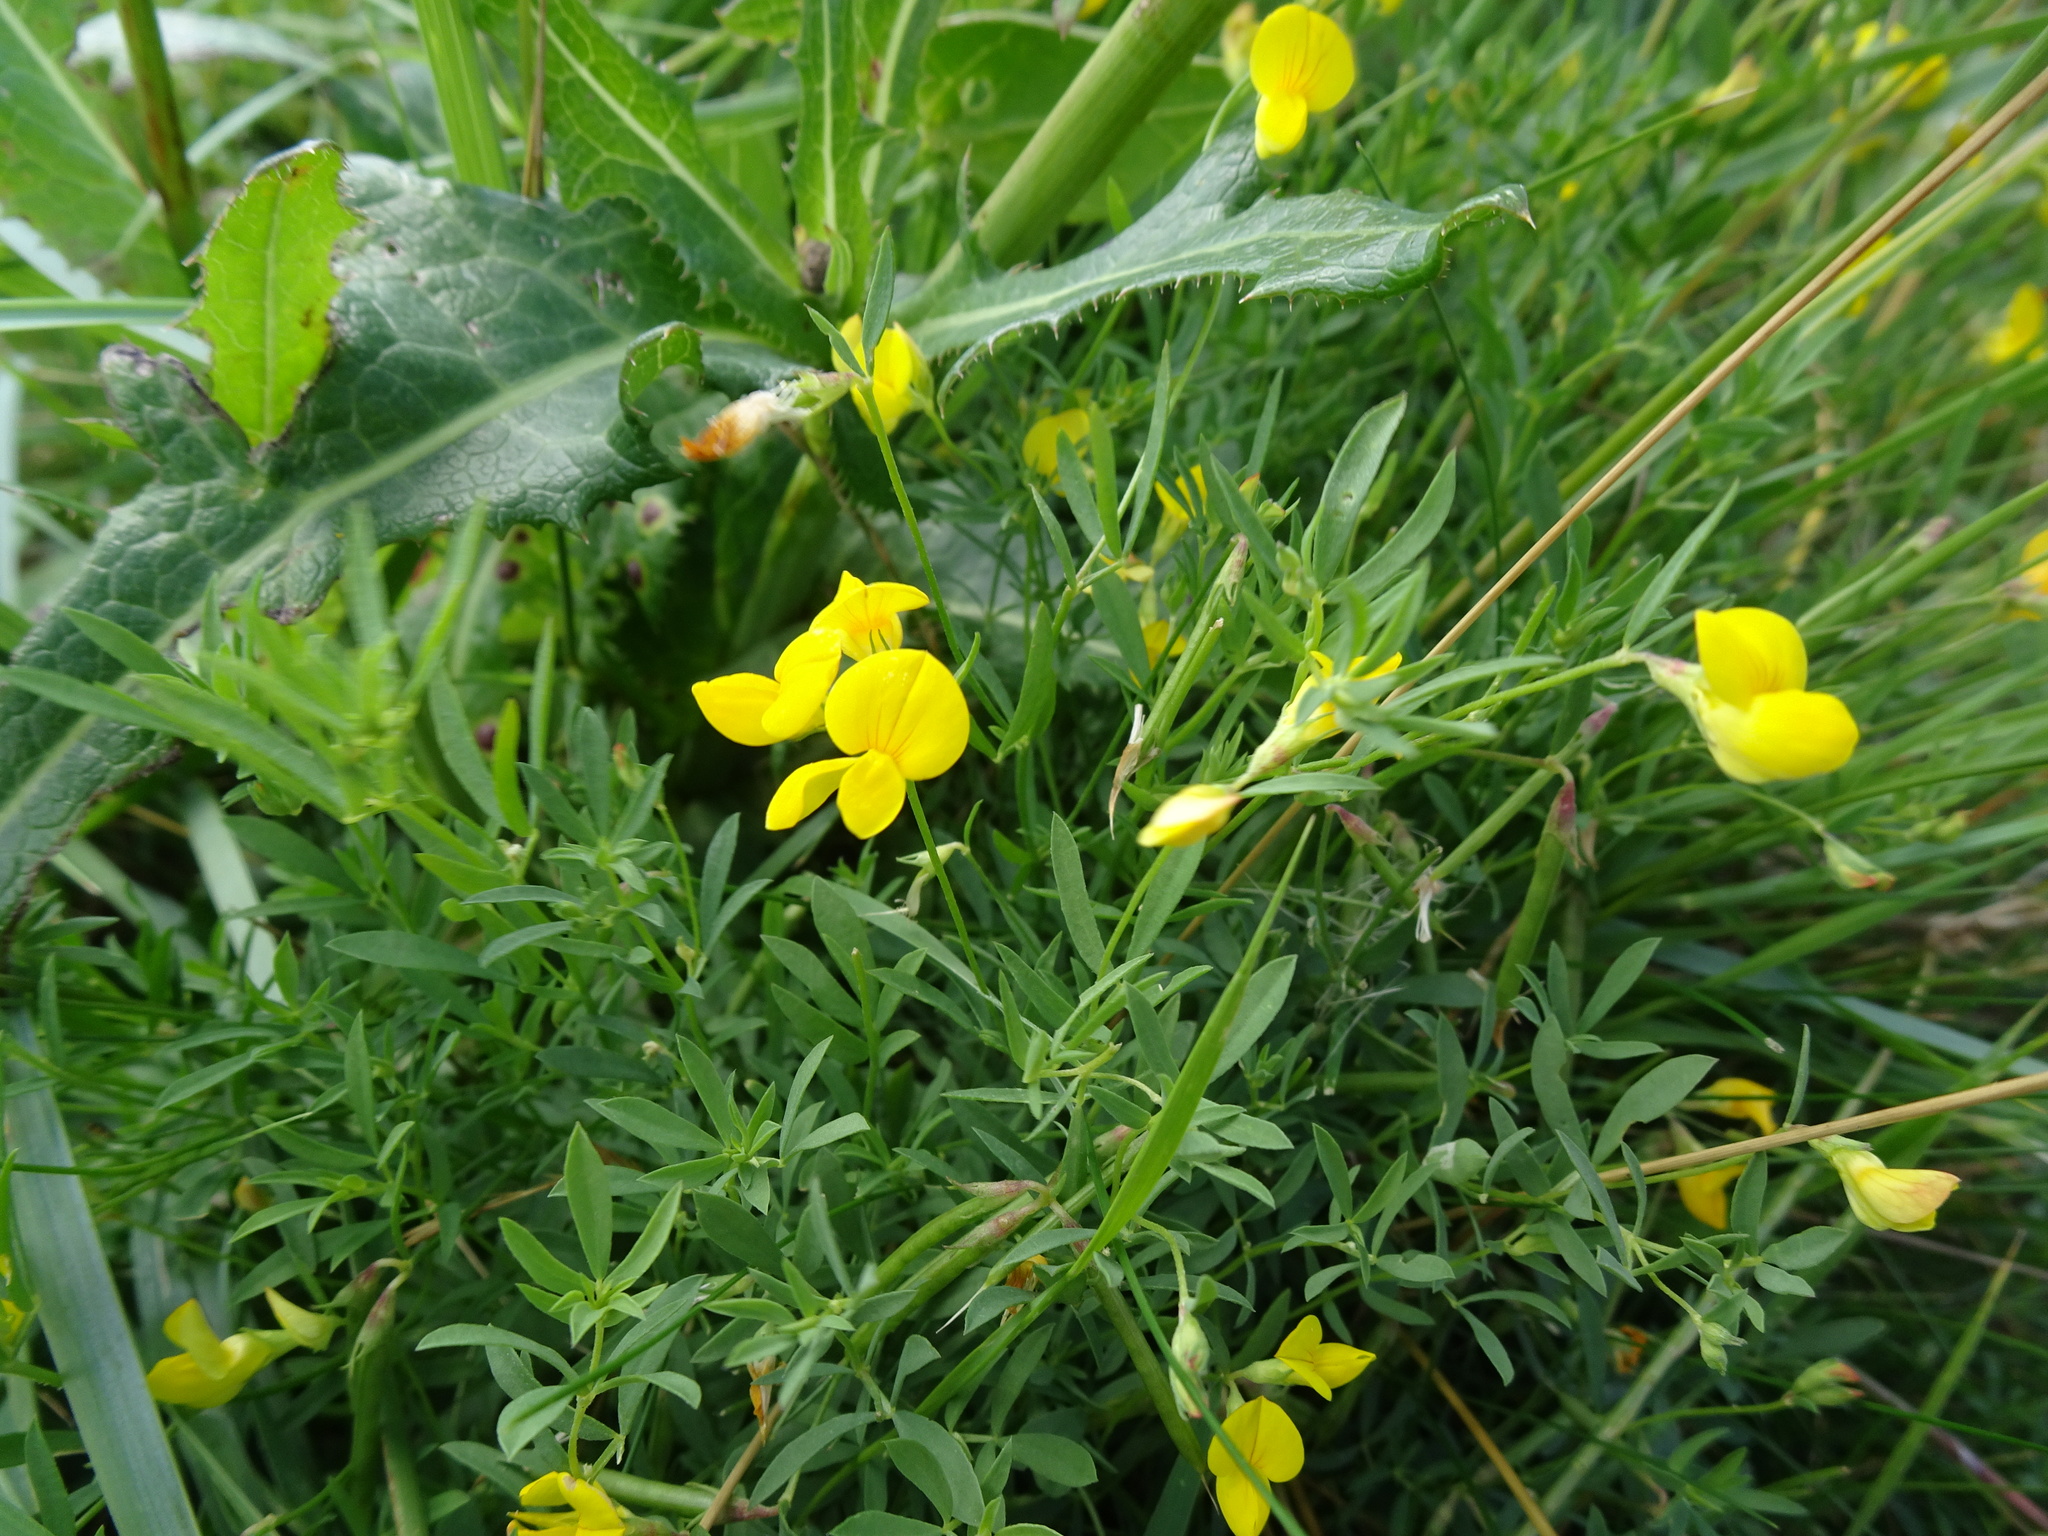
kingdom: Plantae
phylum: Tracheophyta
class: Magnoliopsida
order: Fabales
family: Fabaceae
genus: Lathyrus
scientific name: Lathyrus pratensis
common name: Meadow vetchling
